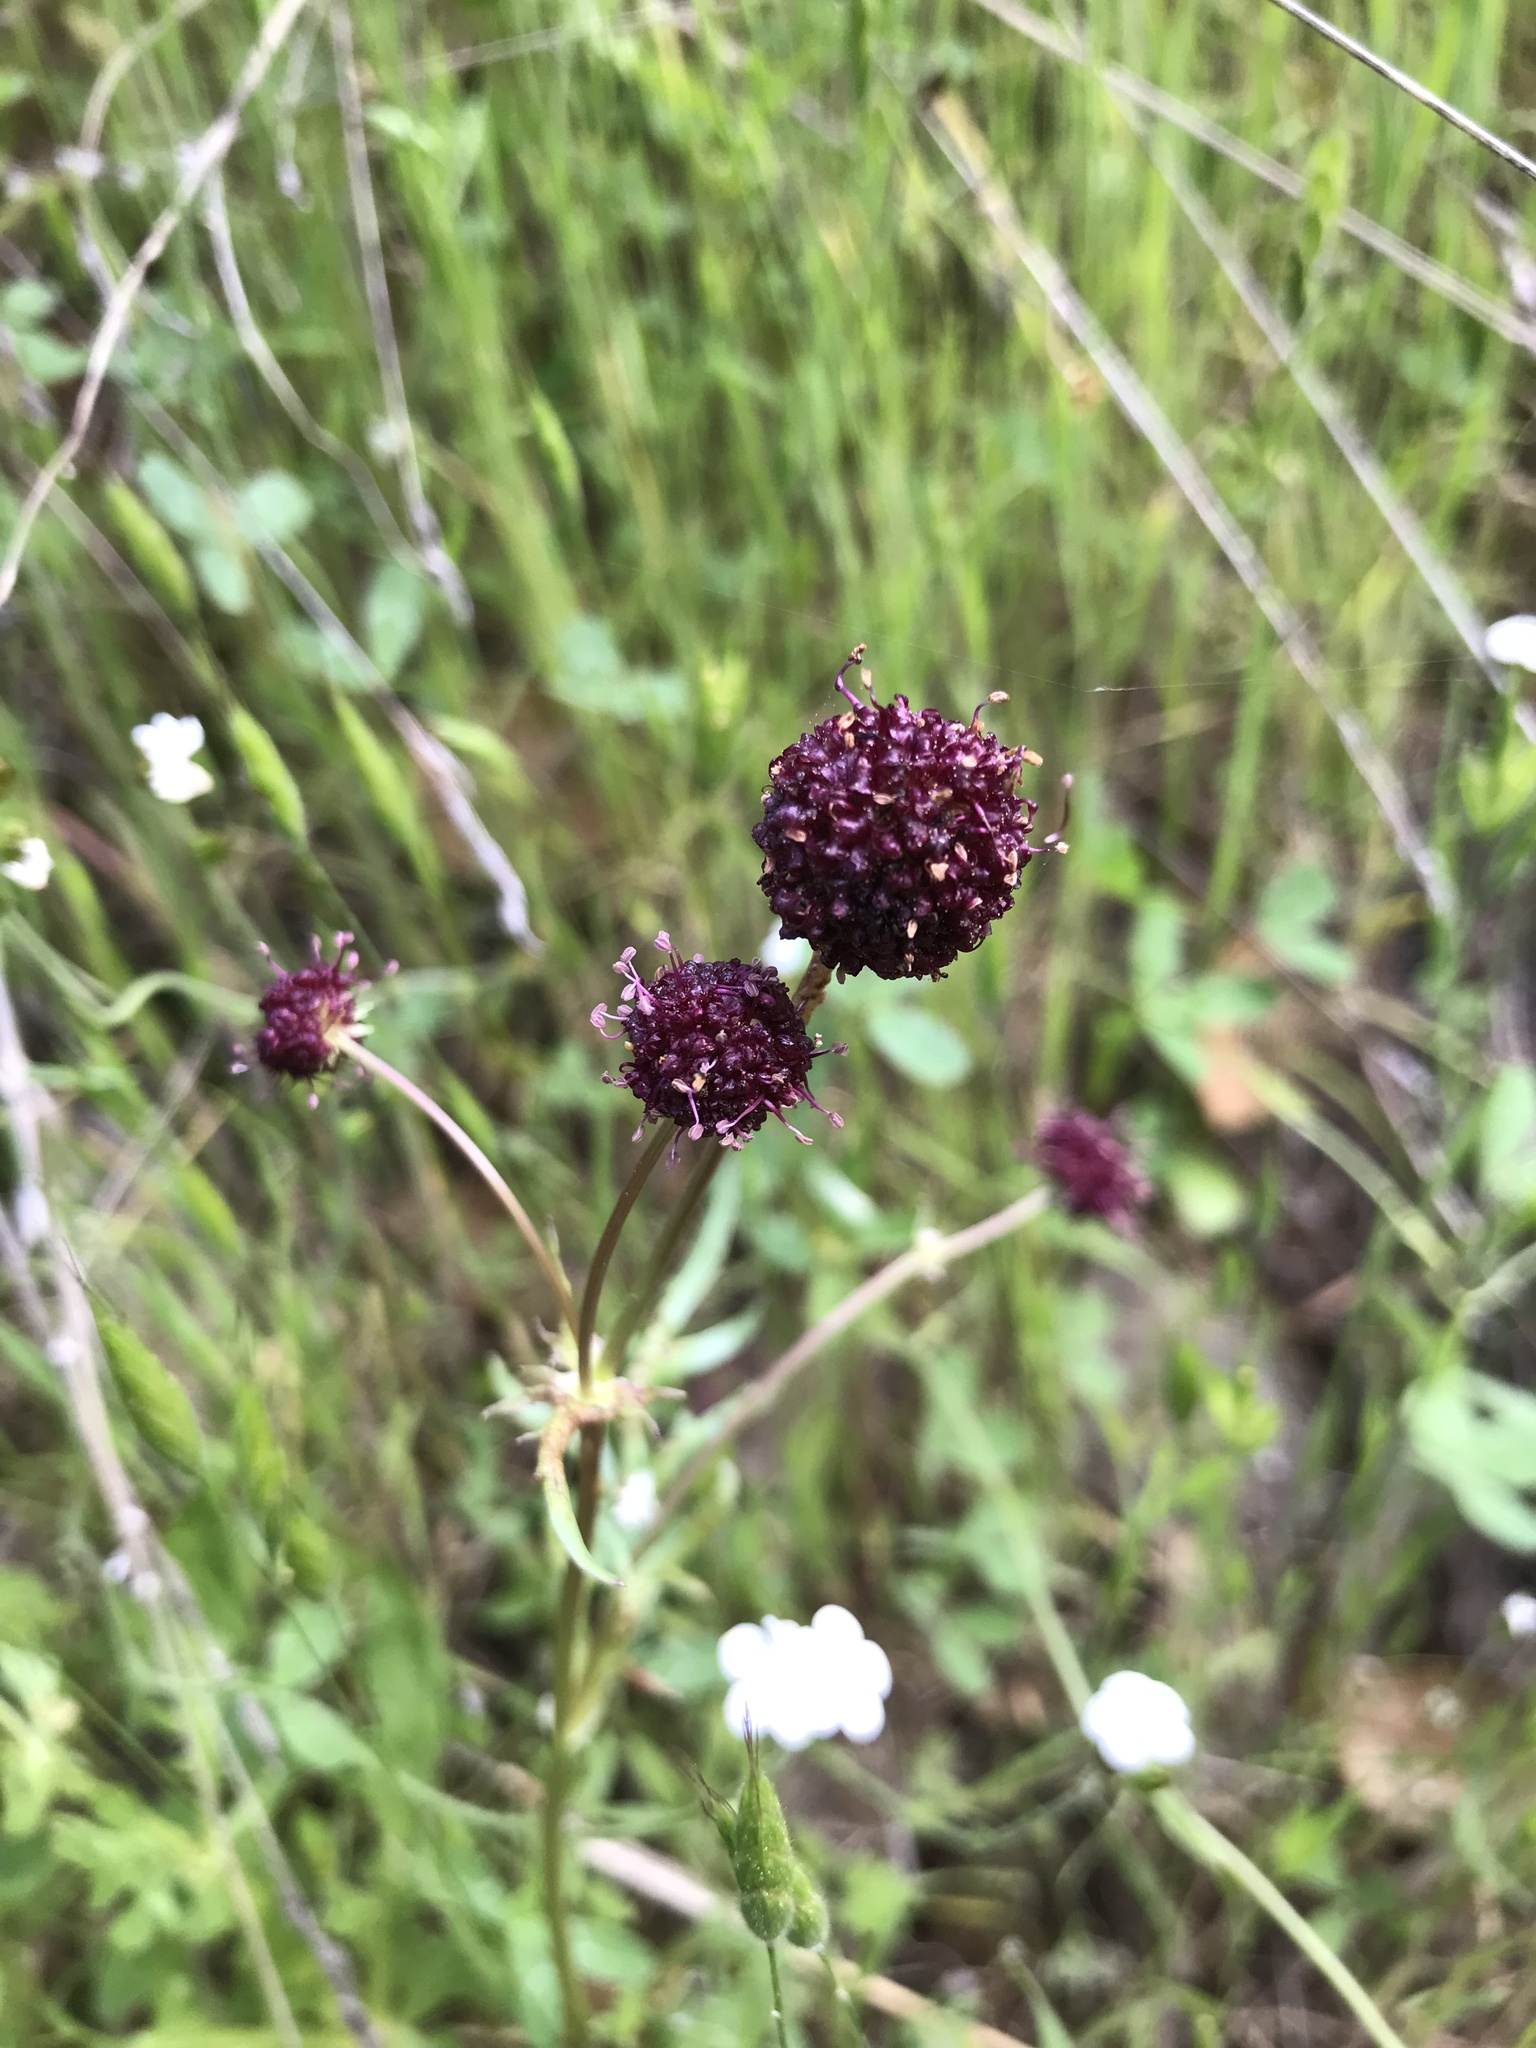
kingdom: Plantae
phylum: Tracheophyta
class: Magnoliopsida
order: Apiales
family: Apiaceae
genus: Sanicula
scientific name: Sanicula bipinnatifida
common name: Shoe-buttons
